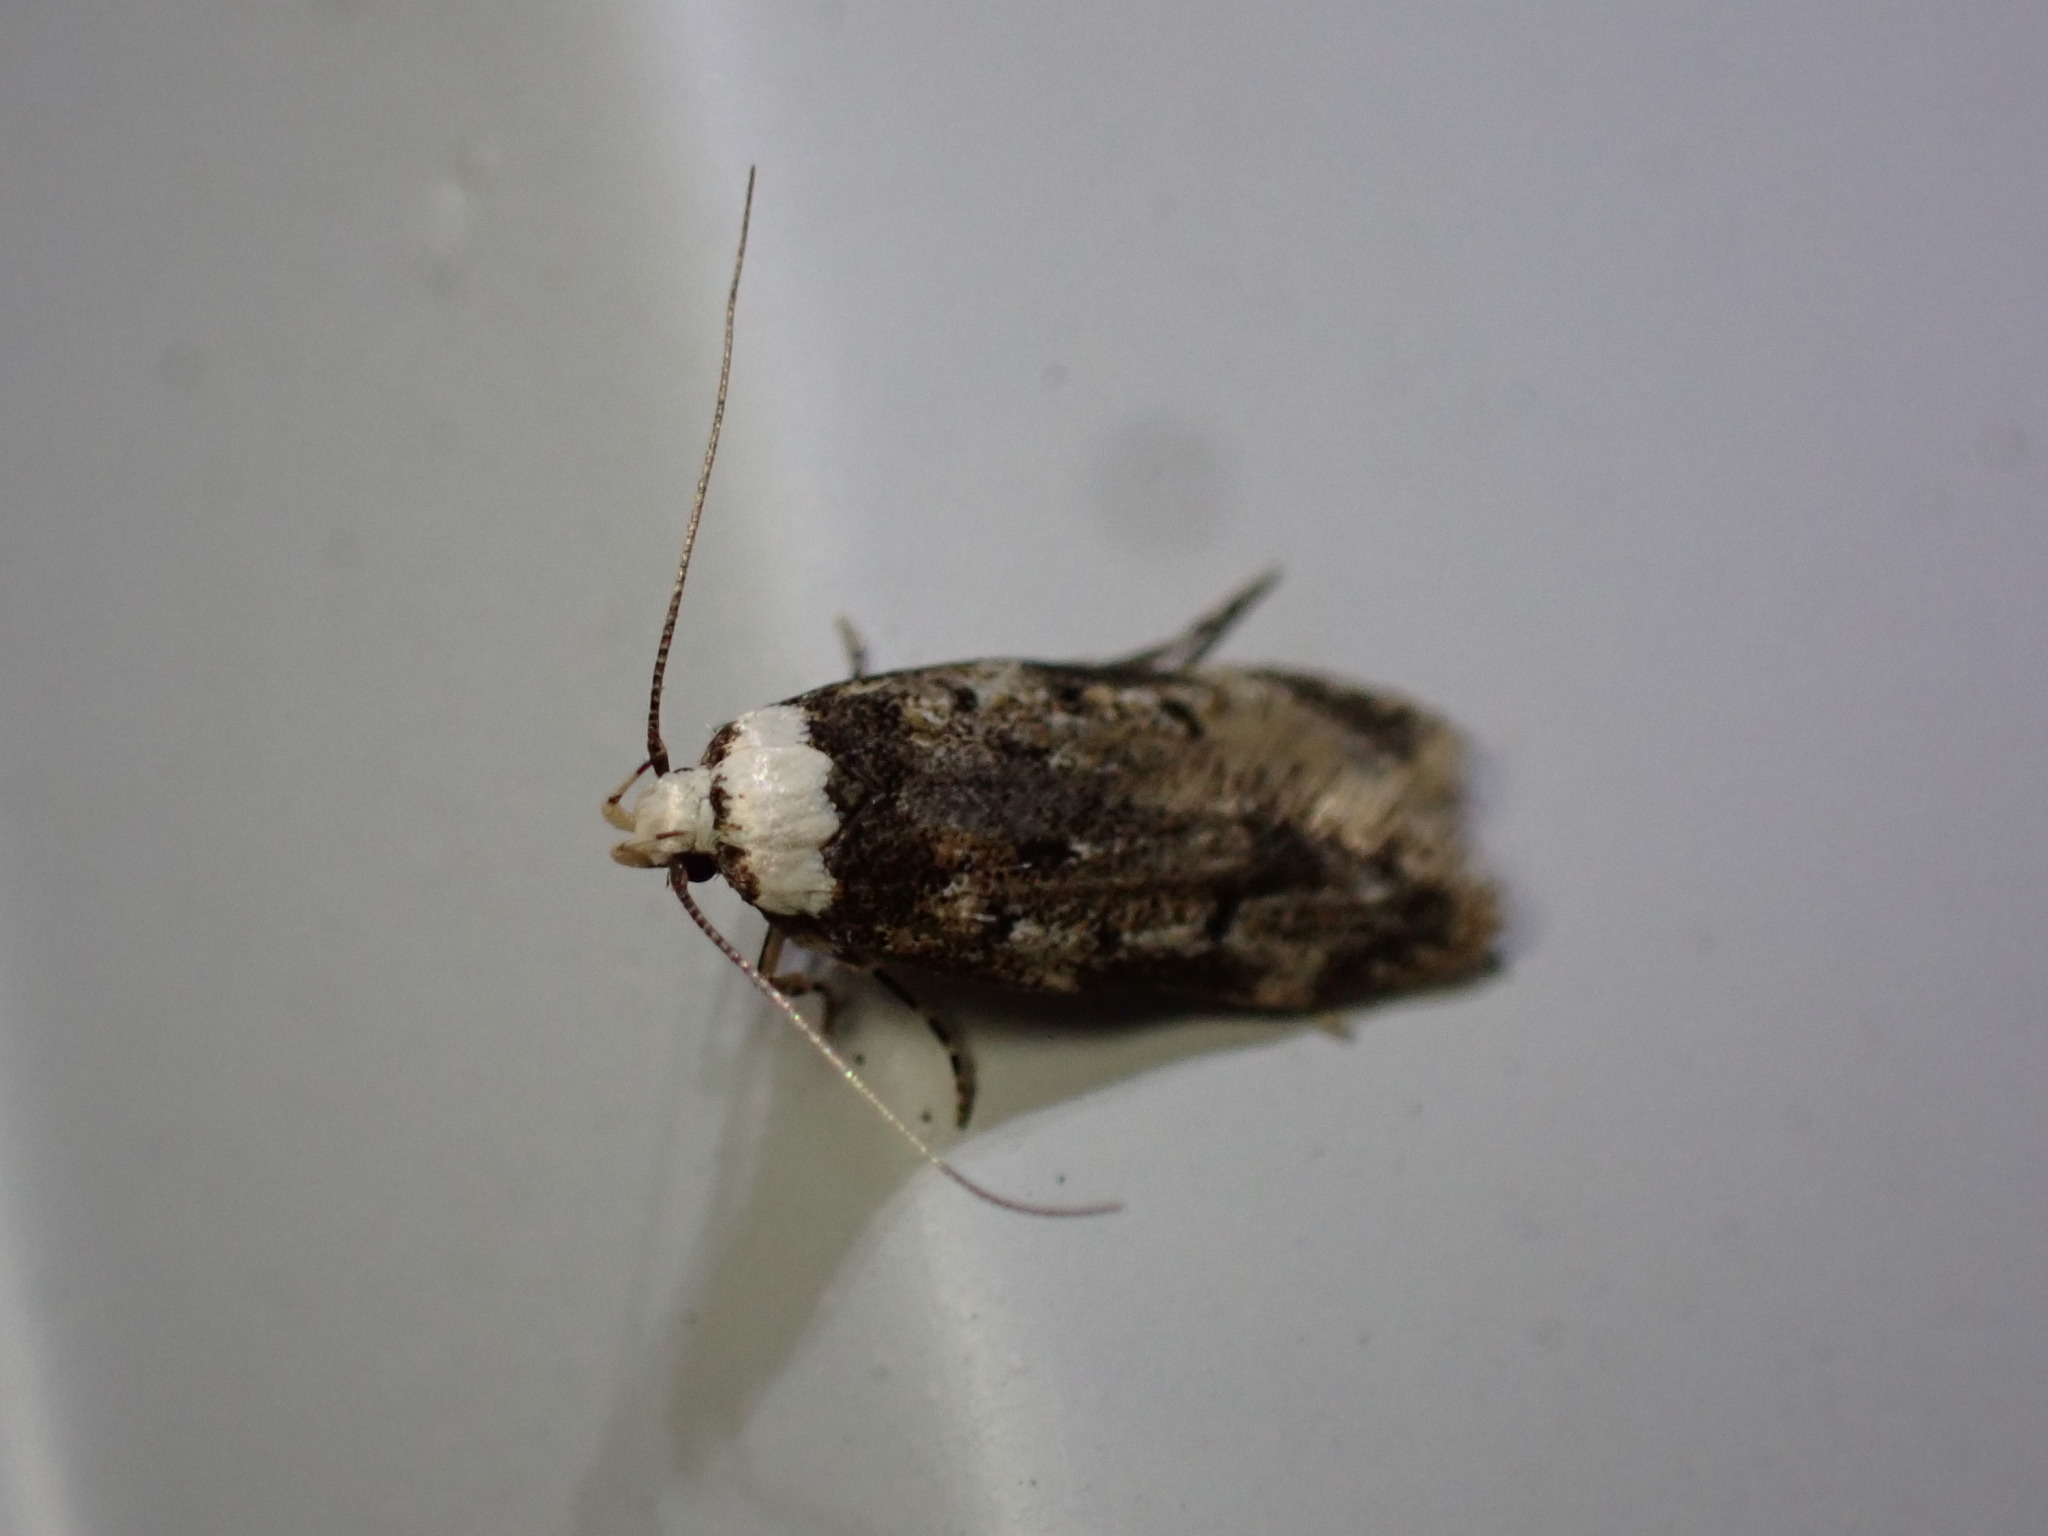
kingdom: Animalia
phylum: Arthropoda
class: Insecta
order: Lepidoptera
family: Oecophoridae
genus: Endrosis
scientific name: Endrosis sarcitrella
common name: White-shouldered house moth
